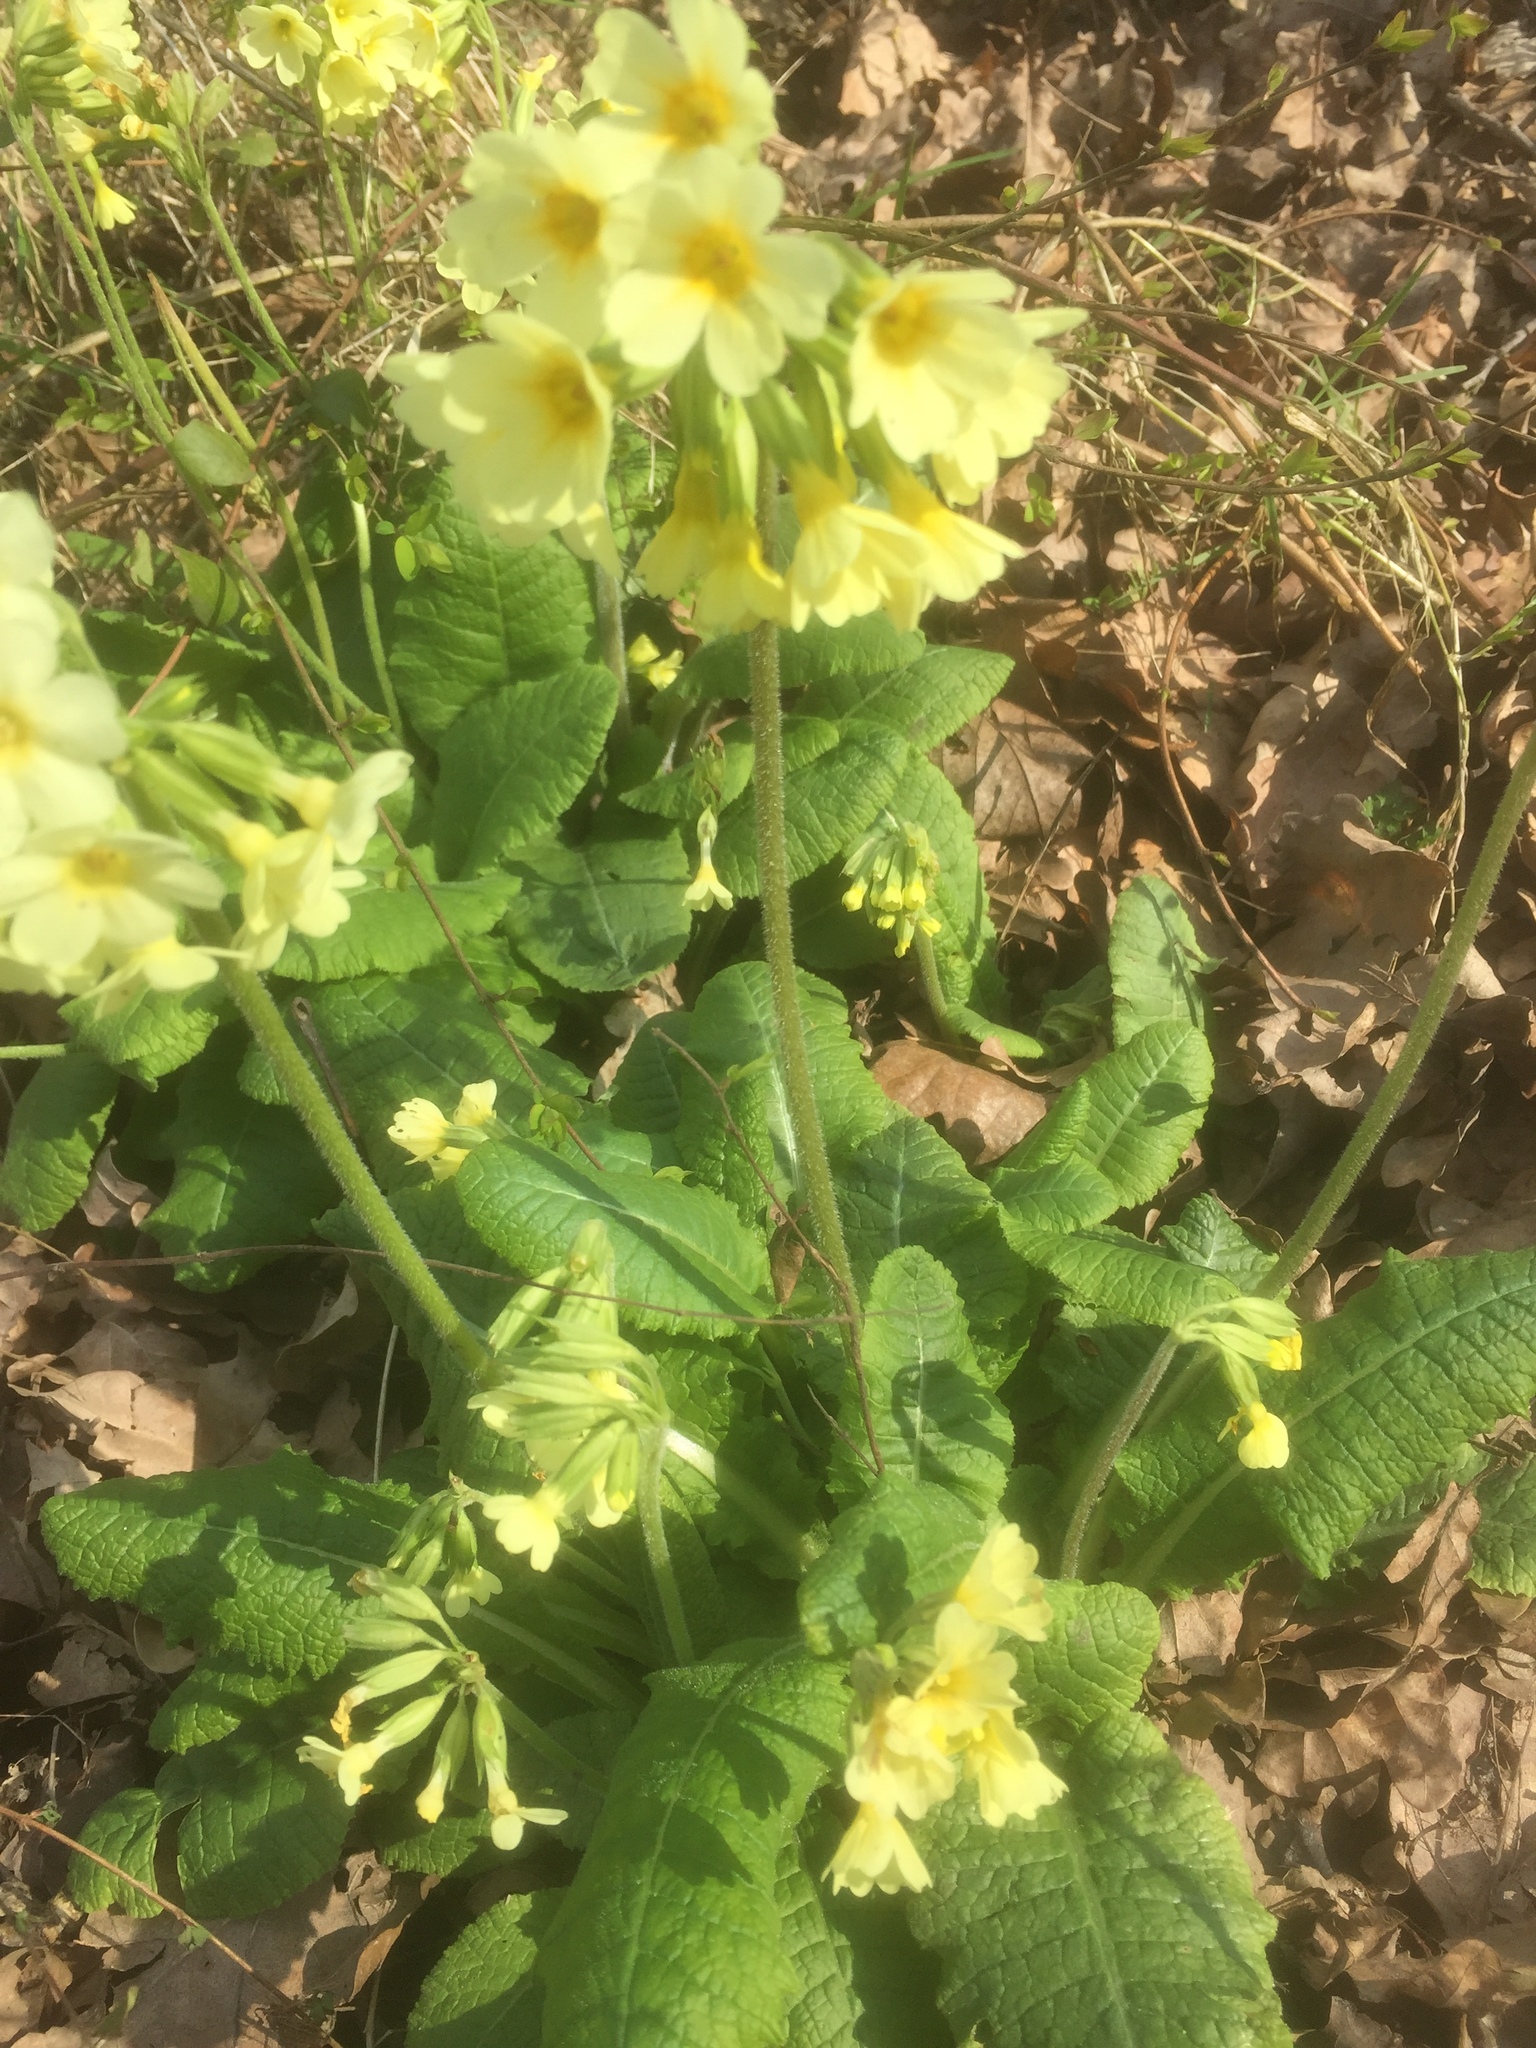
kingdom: Plantae
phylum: Tracheophyta
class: Magnoliopsida
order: Ericales
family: Primulaceae
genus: Primula
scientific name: Primula elatior
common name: Oxlip
